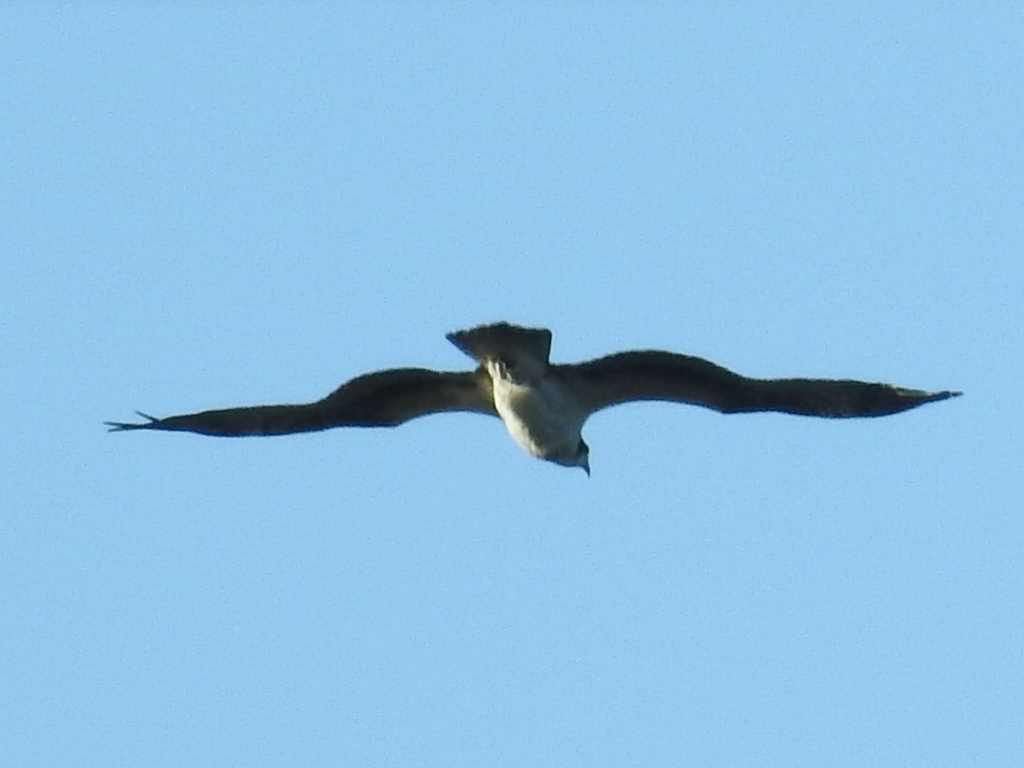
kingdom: Animalia
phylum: Chordata
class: Aves
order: Accipitriformes
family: Pandionidae
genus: Pandion
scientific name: Pandion haliaetus
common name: Osprey
